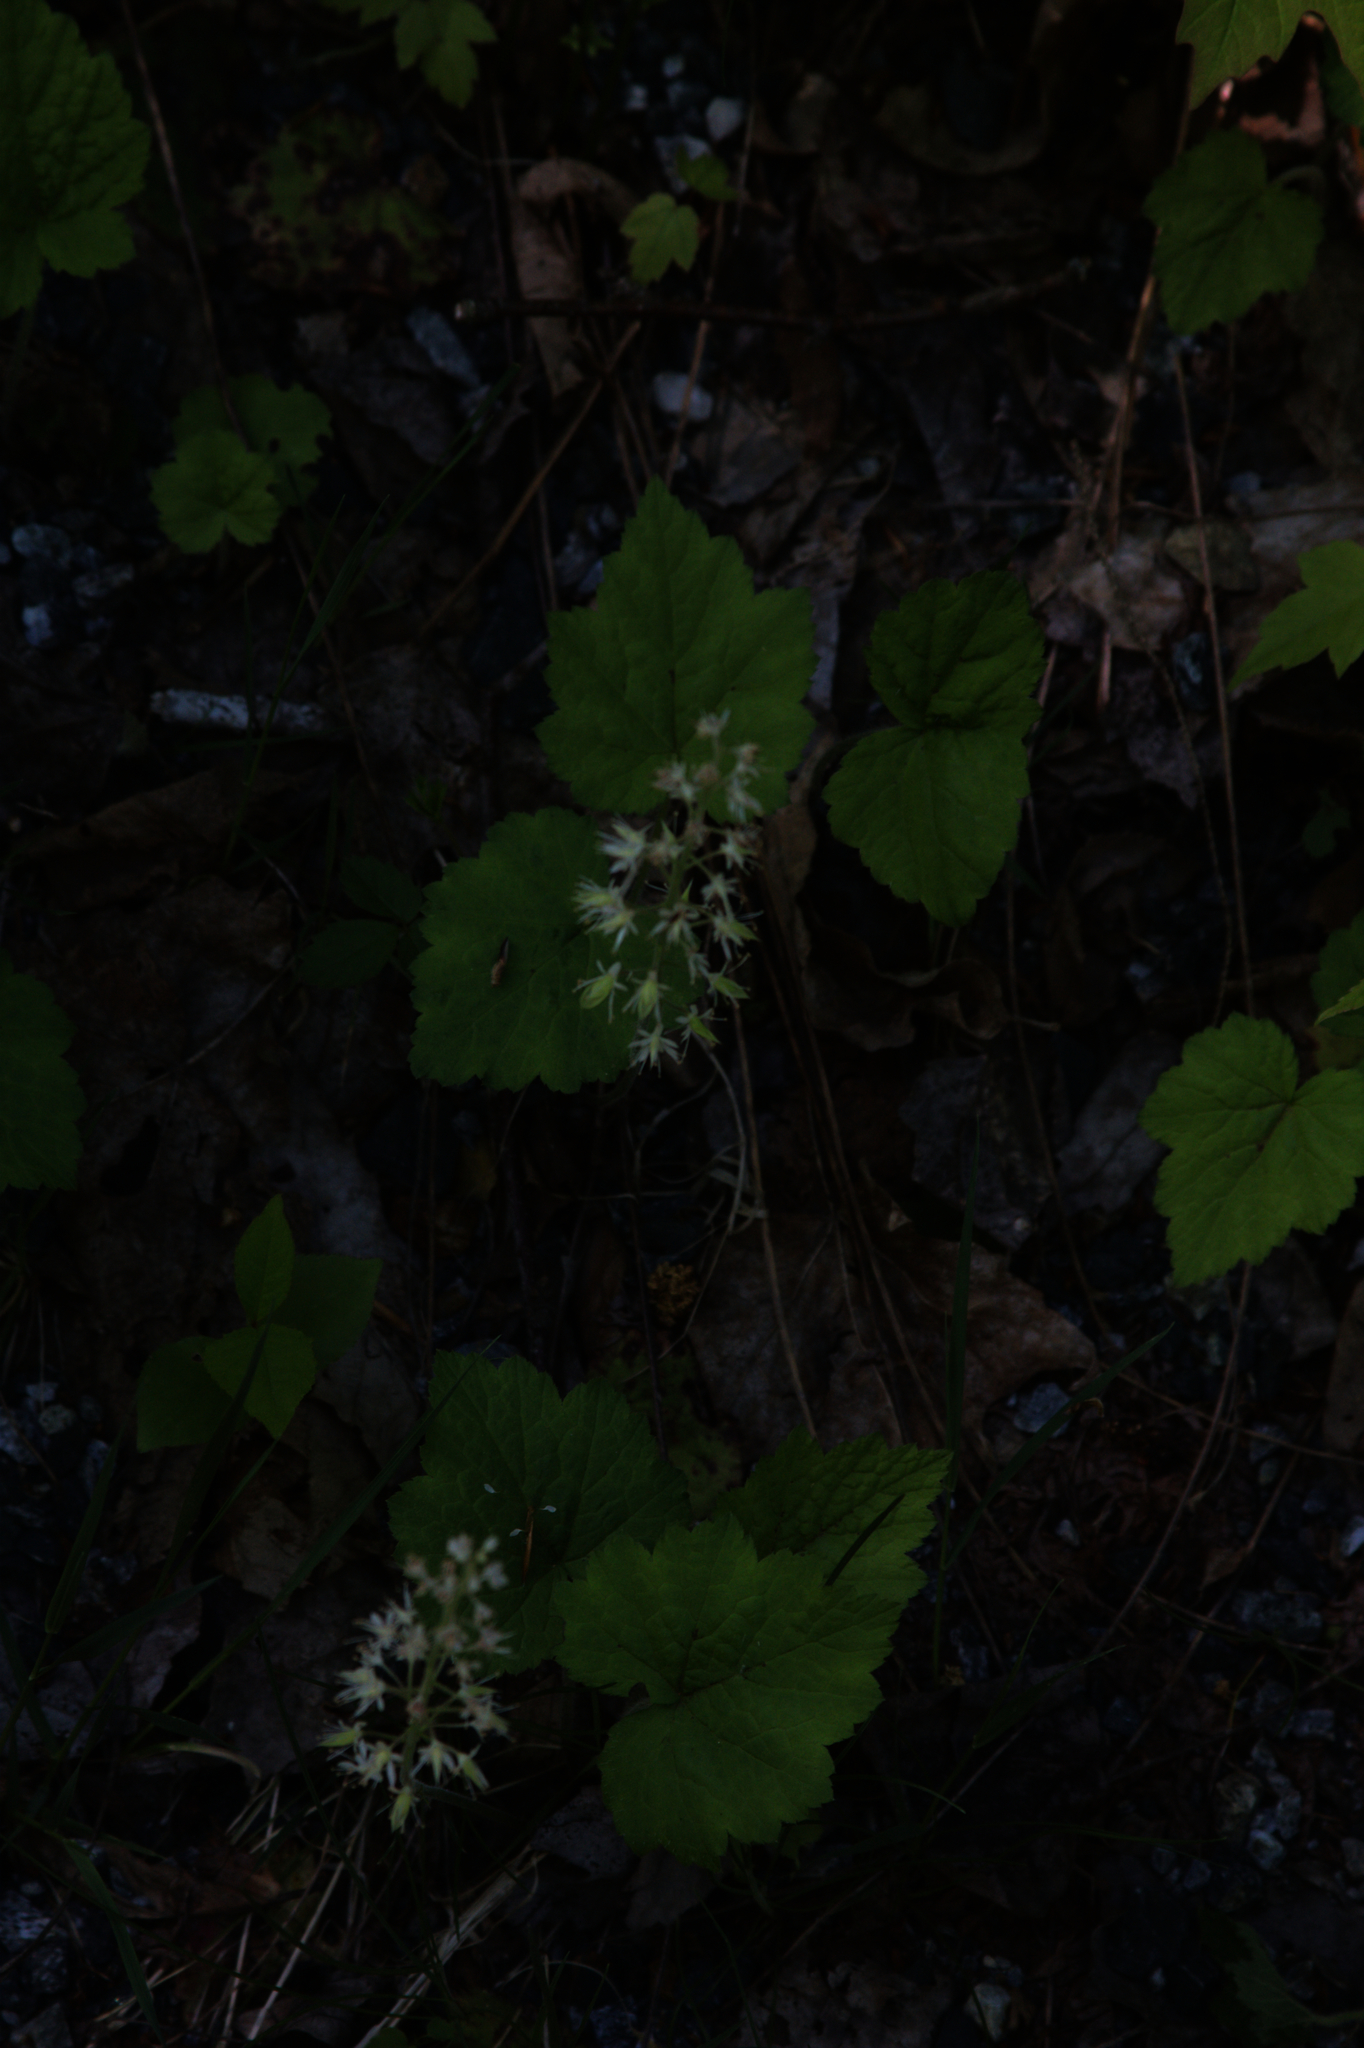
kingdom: Plantae
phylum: Tracheophyta
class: Magnoliopsida
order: Saxifragales
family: Saxifragaceae
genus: Tiarella
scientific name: Tiarella stolonifera
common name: Stoloniferous foamflower
